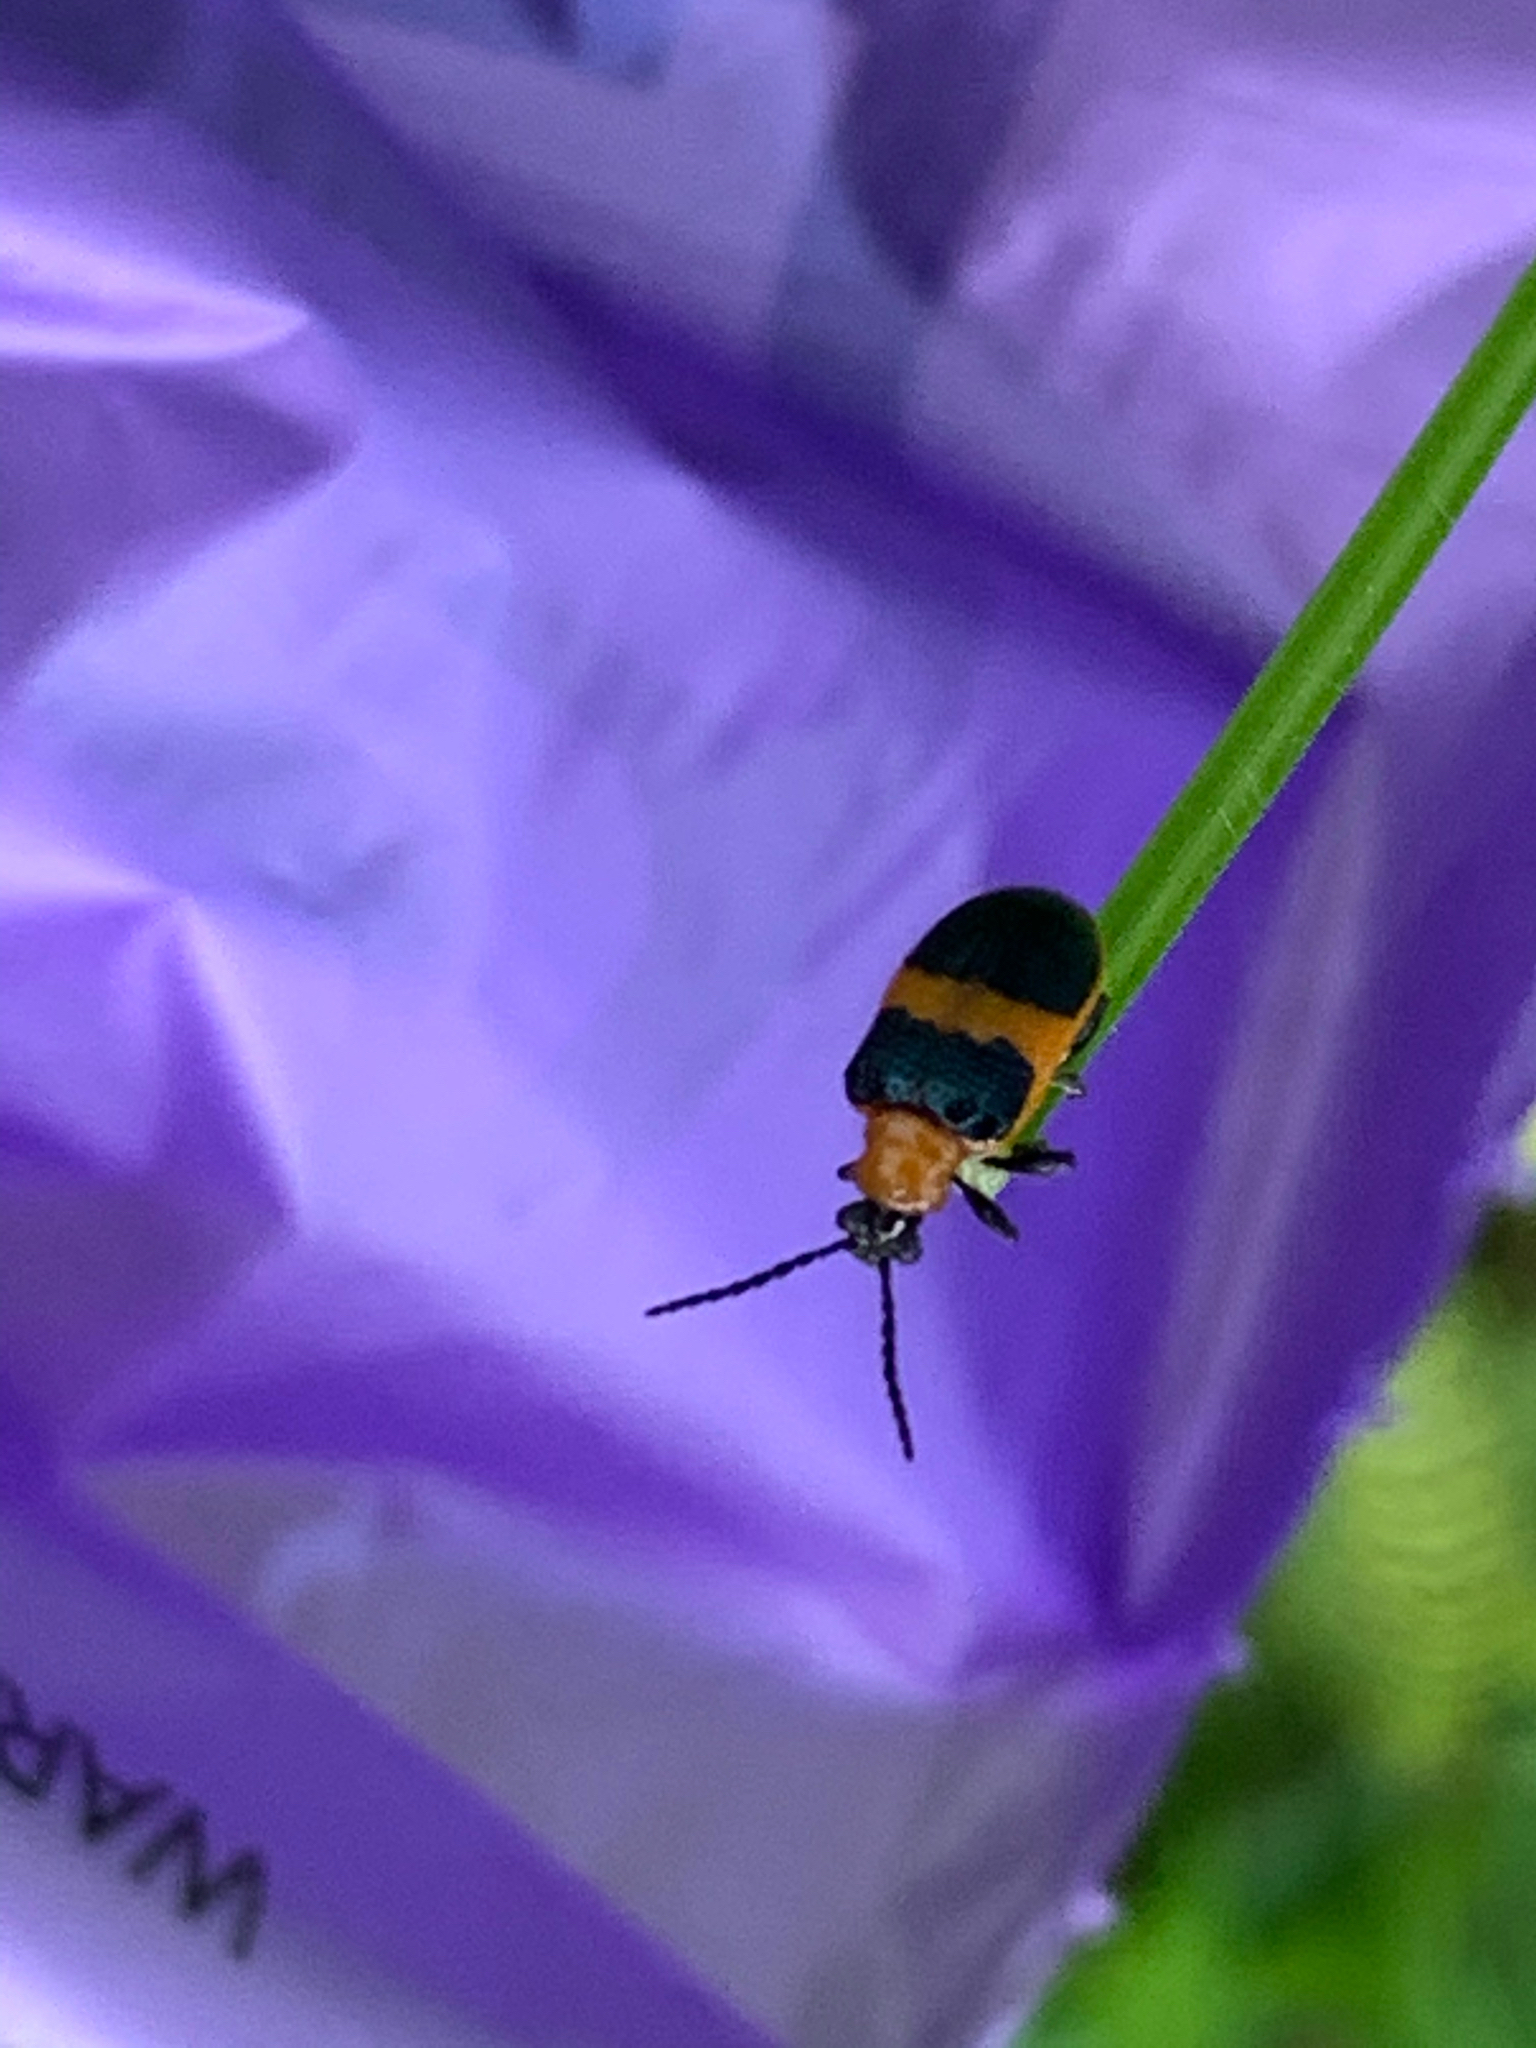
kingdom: Animalia
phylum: Arthropoda
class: Insecta
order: Coleoptera
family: Chrysomelidae
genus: Lema
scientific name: Lema solani
